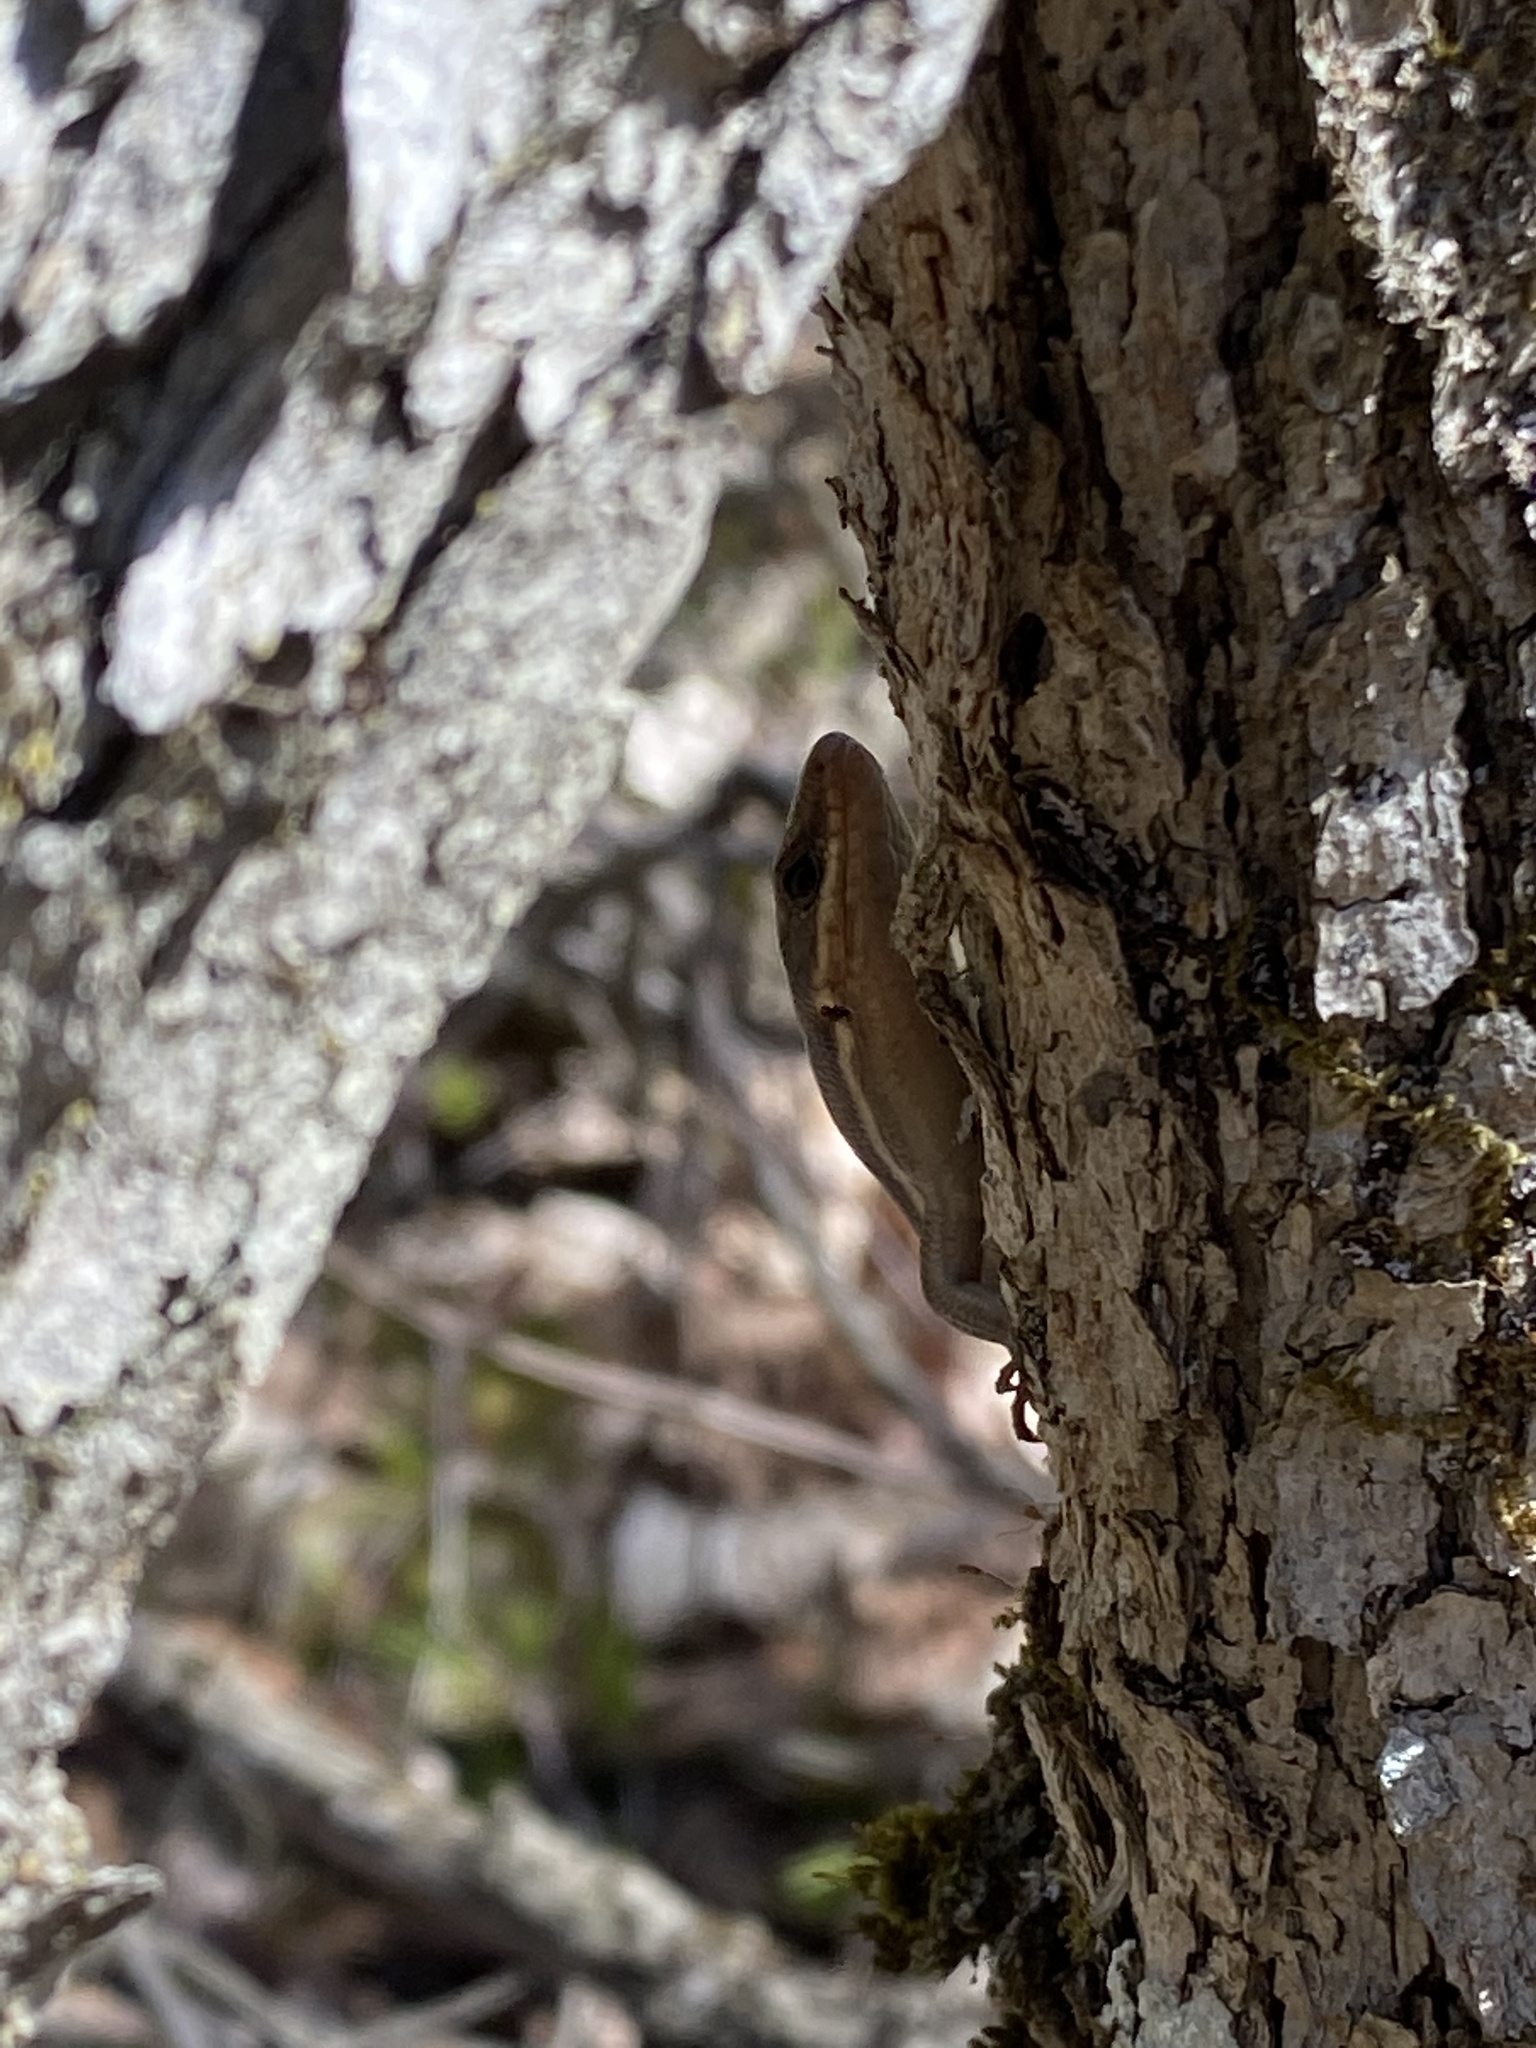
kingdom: Animalia
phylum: Chordata
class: Squamata
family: Scincidae
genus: Plestiodon
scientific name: Plestiodon fasciatus
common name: Five-lined skink
